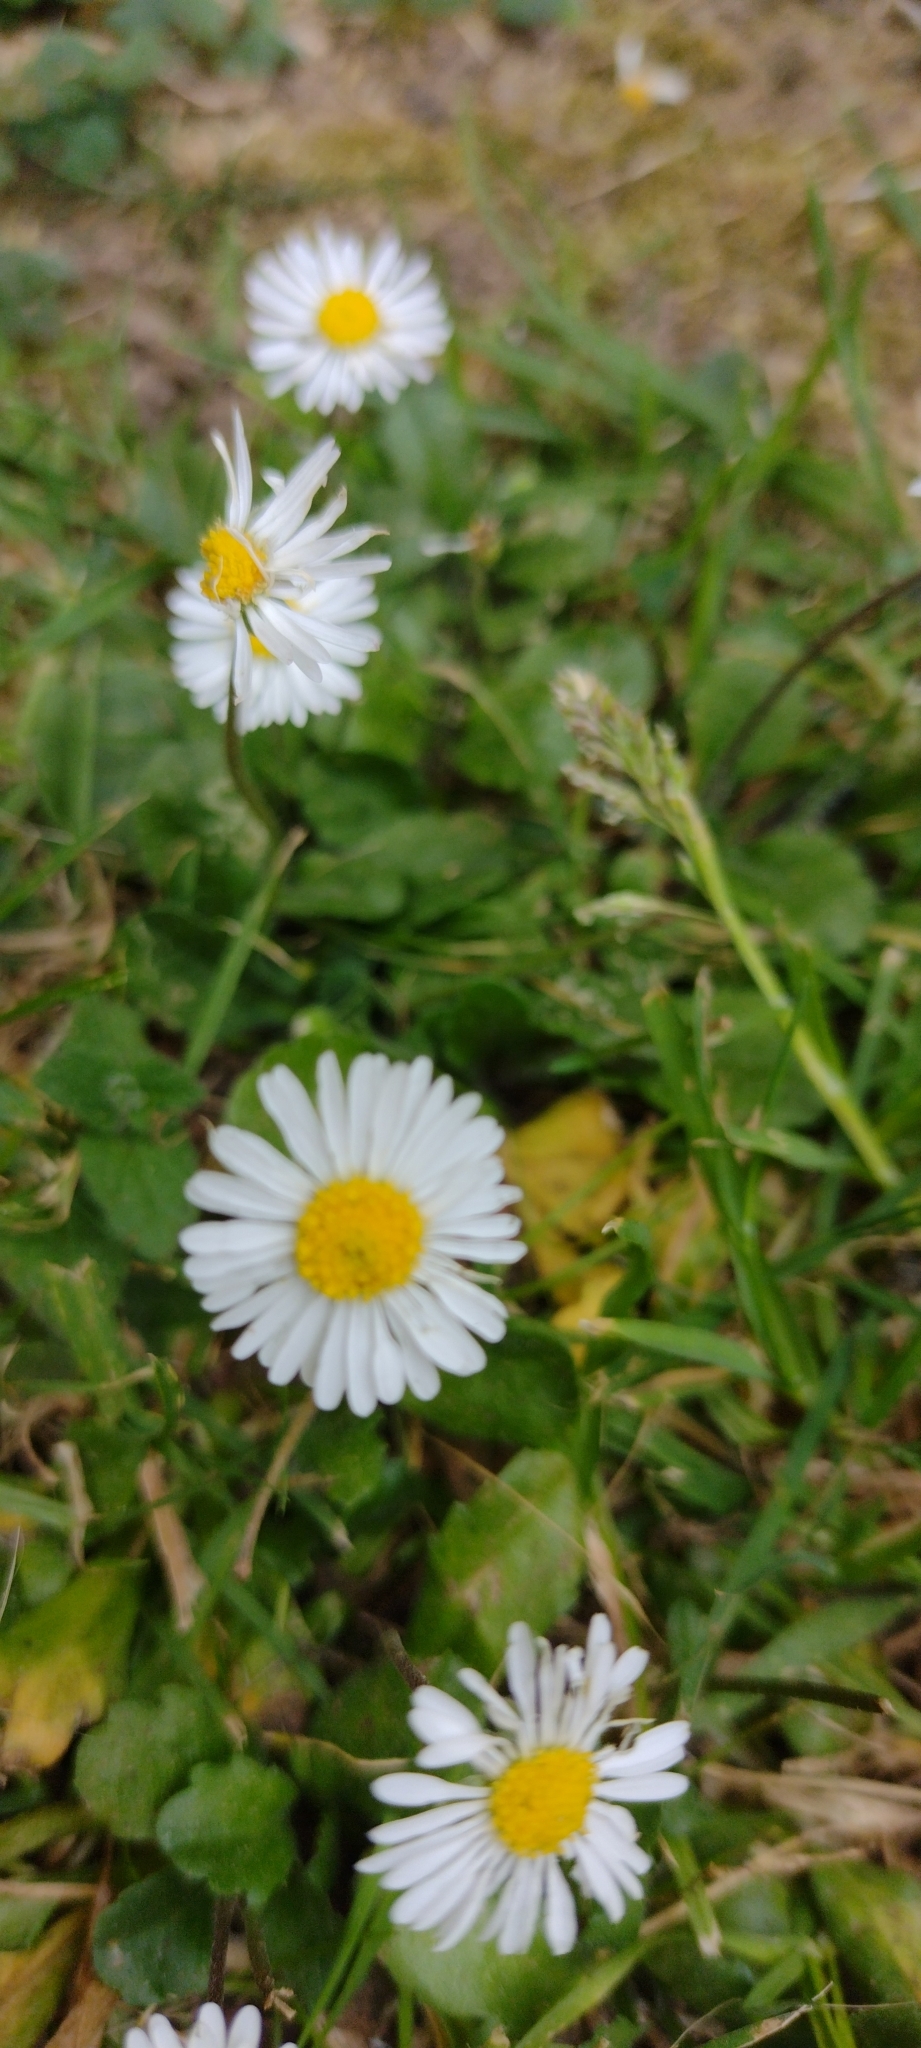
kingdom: Plantae
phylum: Tracheophyta
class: Magnoliopsida
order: Asterales
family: Asteraceae
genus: Bellis
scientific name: Bellis perennis
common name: Lawndaisy
